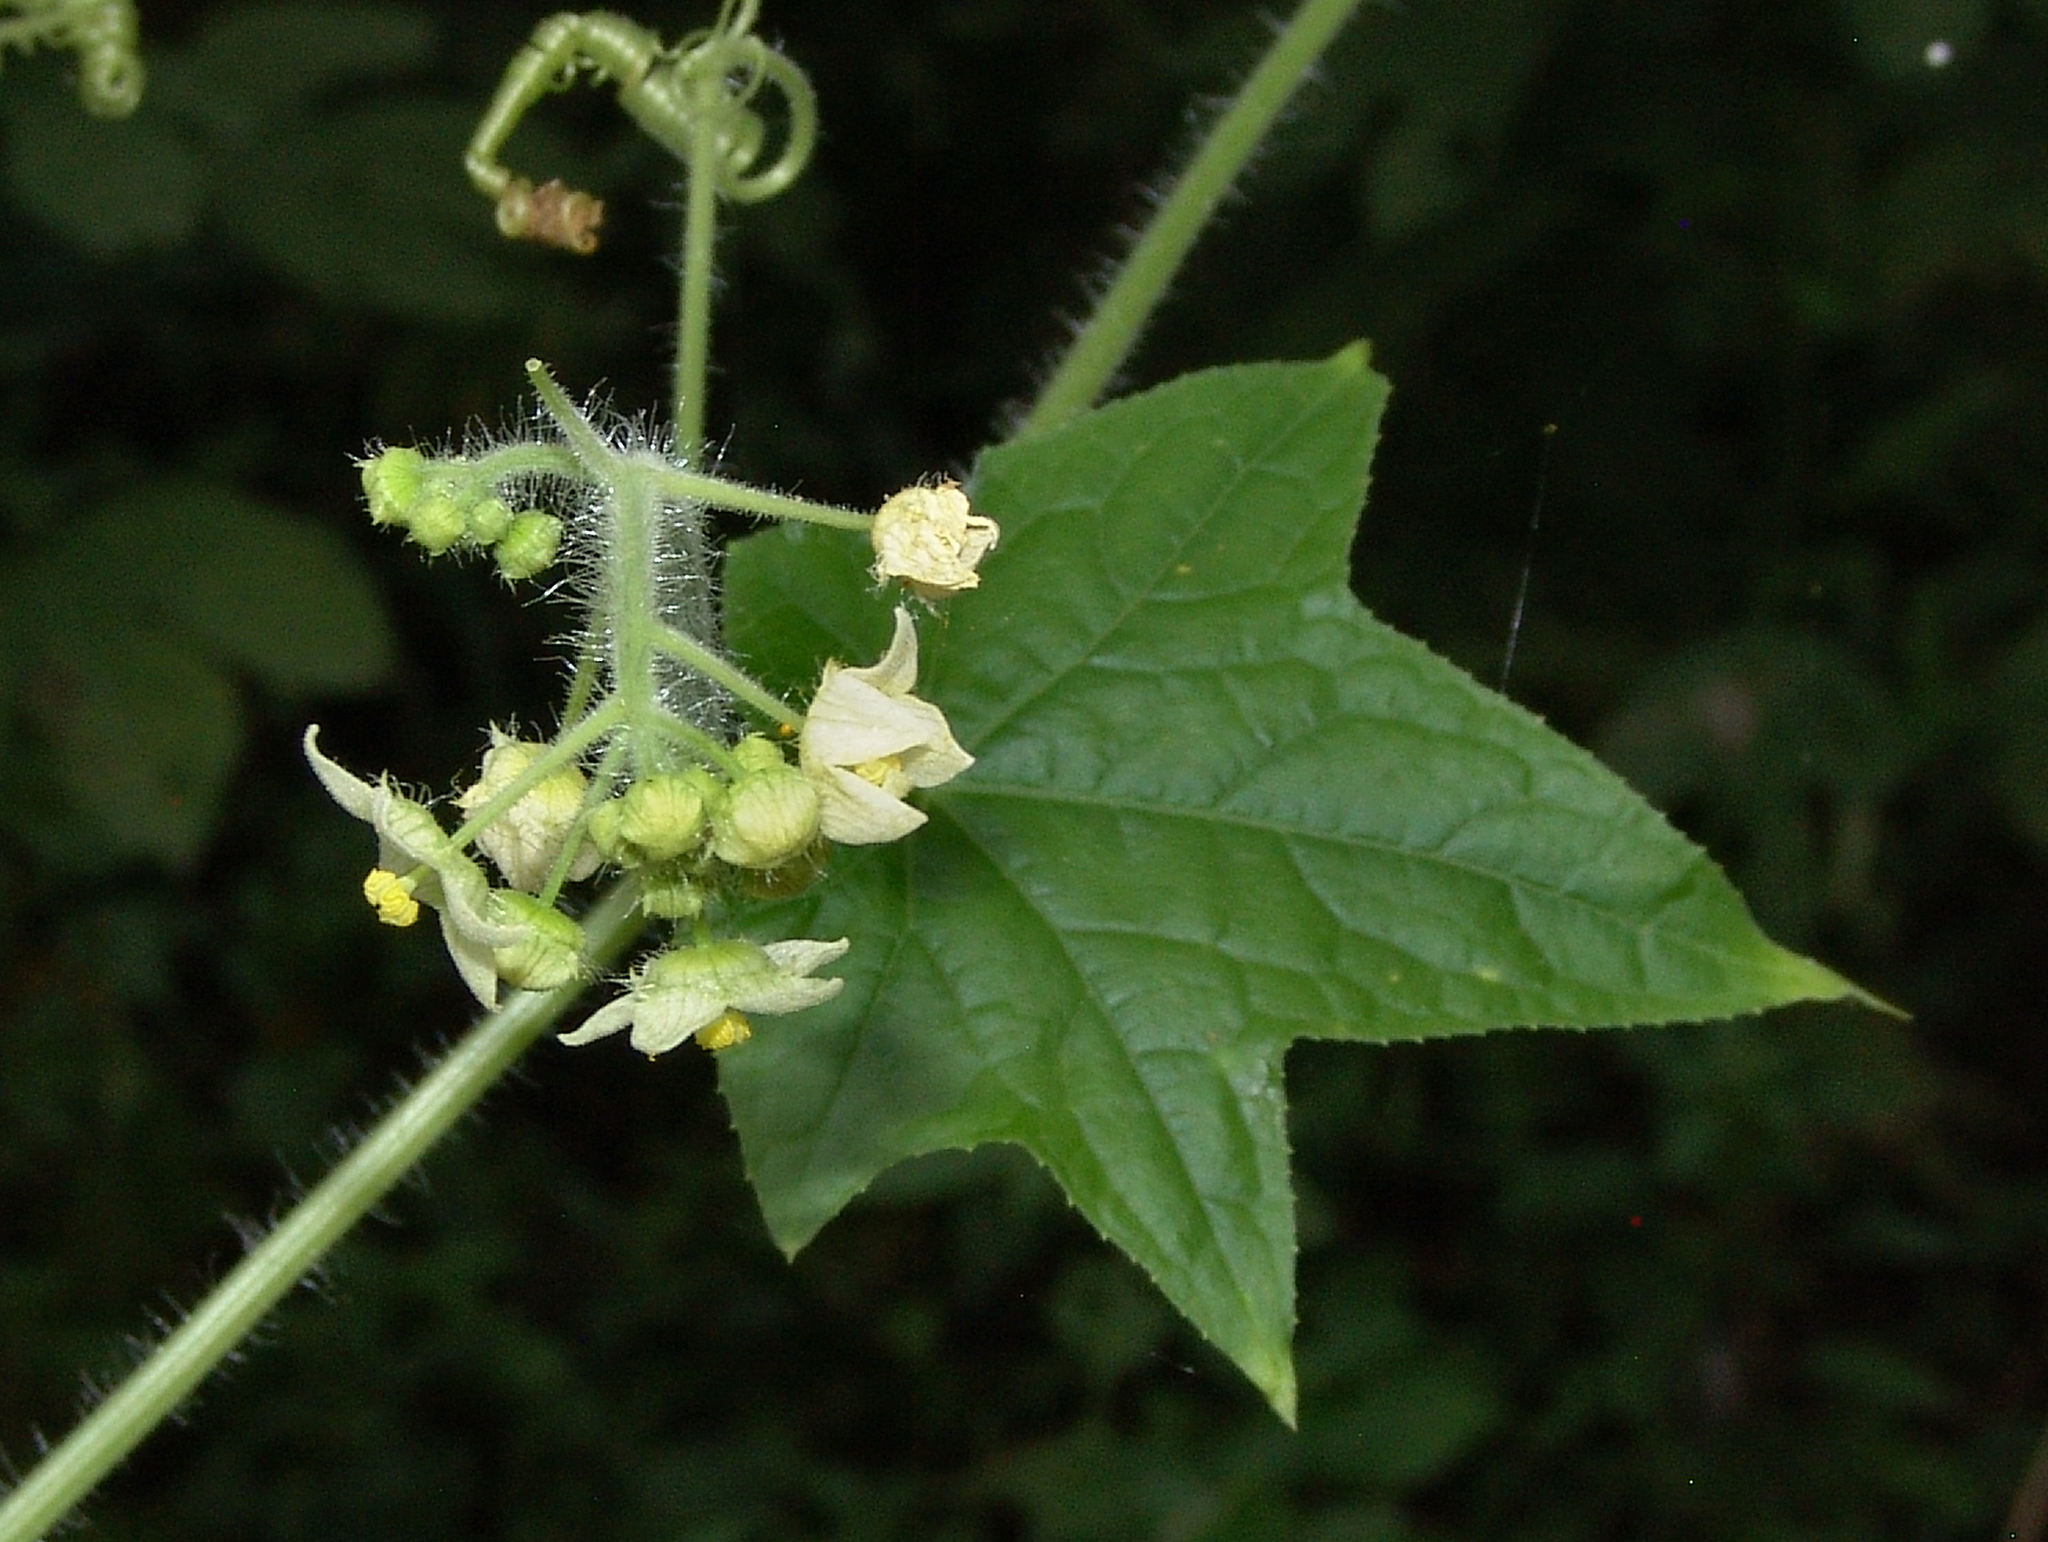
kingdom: Plantae
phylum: Tracheophyta
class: Magnoliopsida
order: Cucurbitales
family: Cucurbitaceae
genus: Sicyos
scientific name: Sicyos angulatus
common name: Angled burr cucumber
